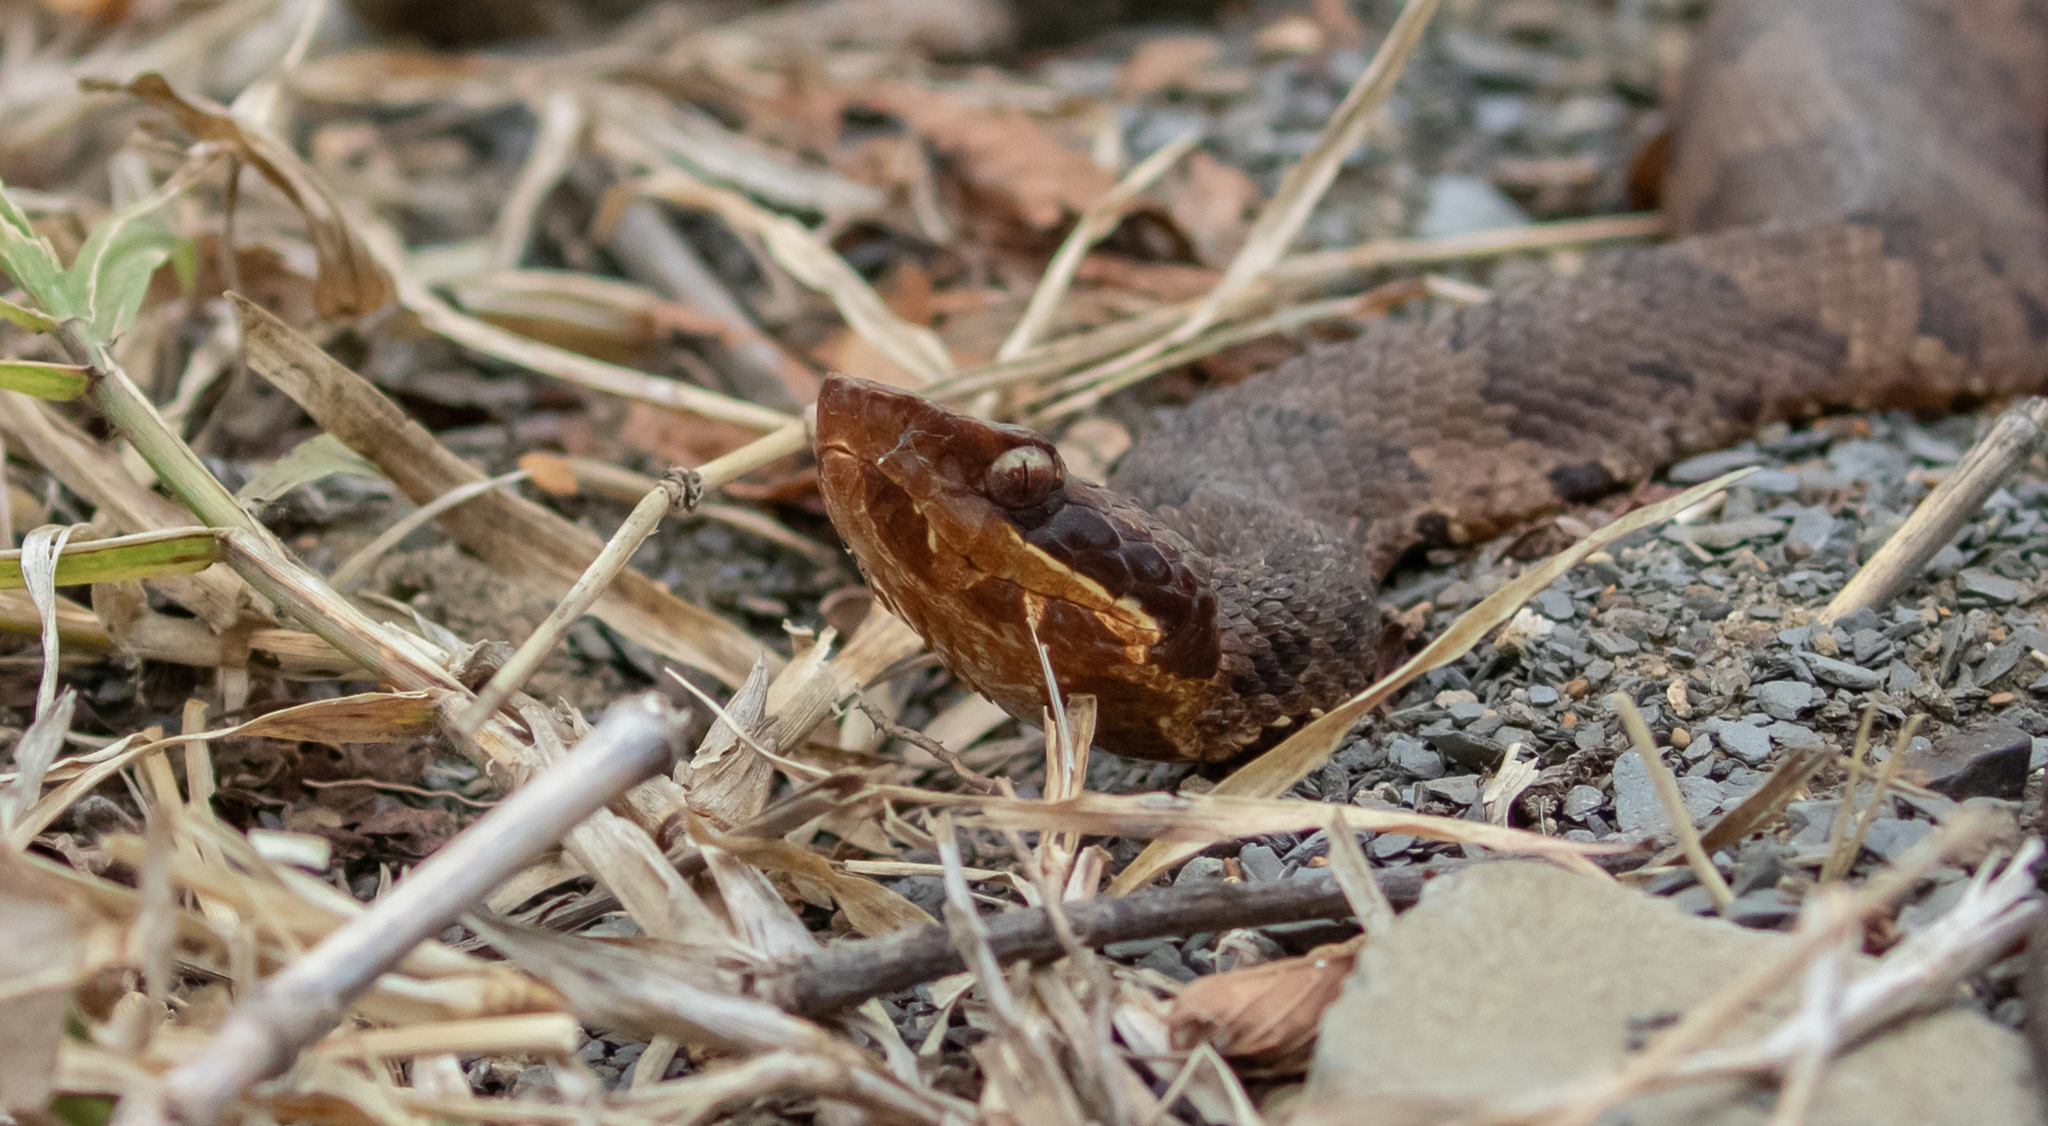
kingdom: Animalia
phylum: Chordata
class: Squamata
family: Viperidae
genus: Agkistrodon
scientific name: Agkistrodon piscivorus
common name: Cottonmouth
